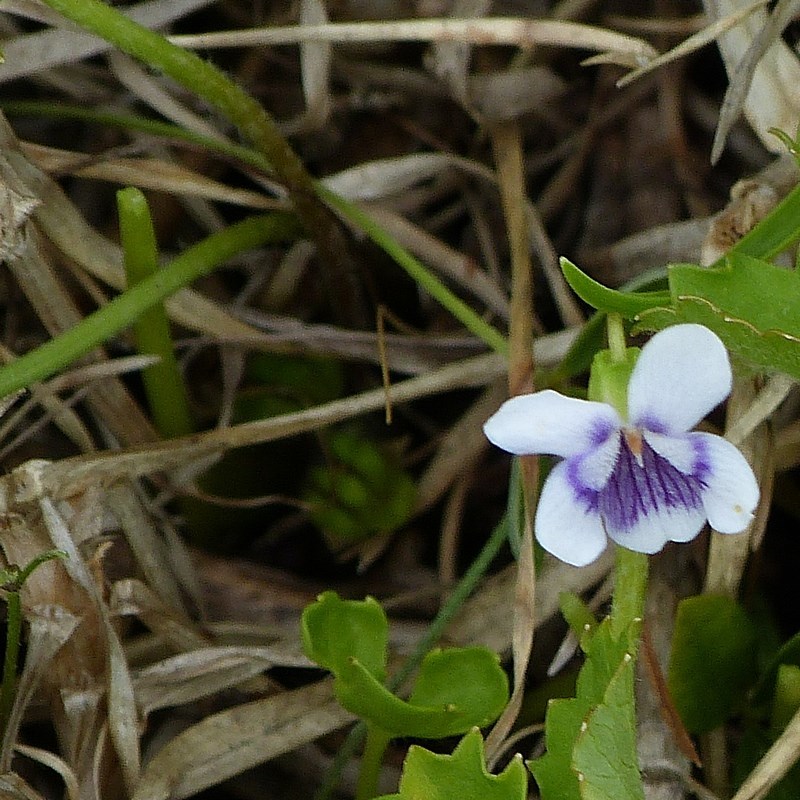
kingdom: Plantae
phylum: Tracheophyta
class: Magnoliopsida
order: Malpighiales
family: Violaceae
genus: Viola
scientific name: Viola banksii
